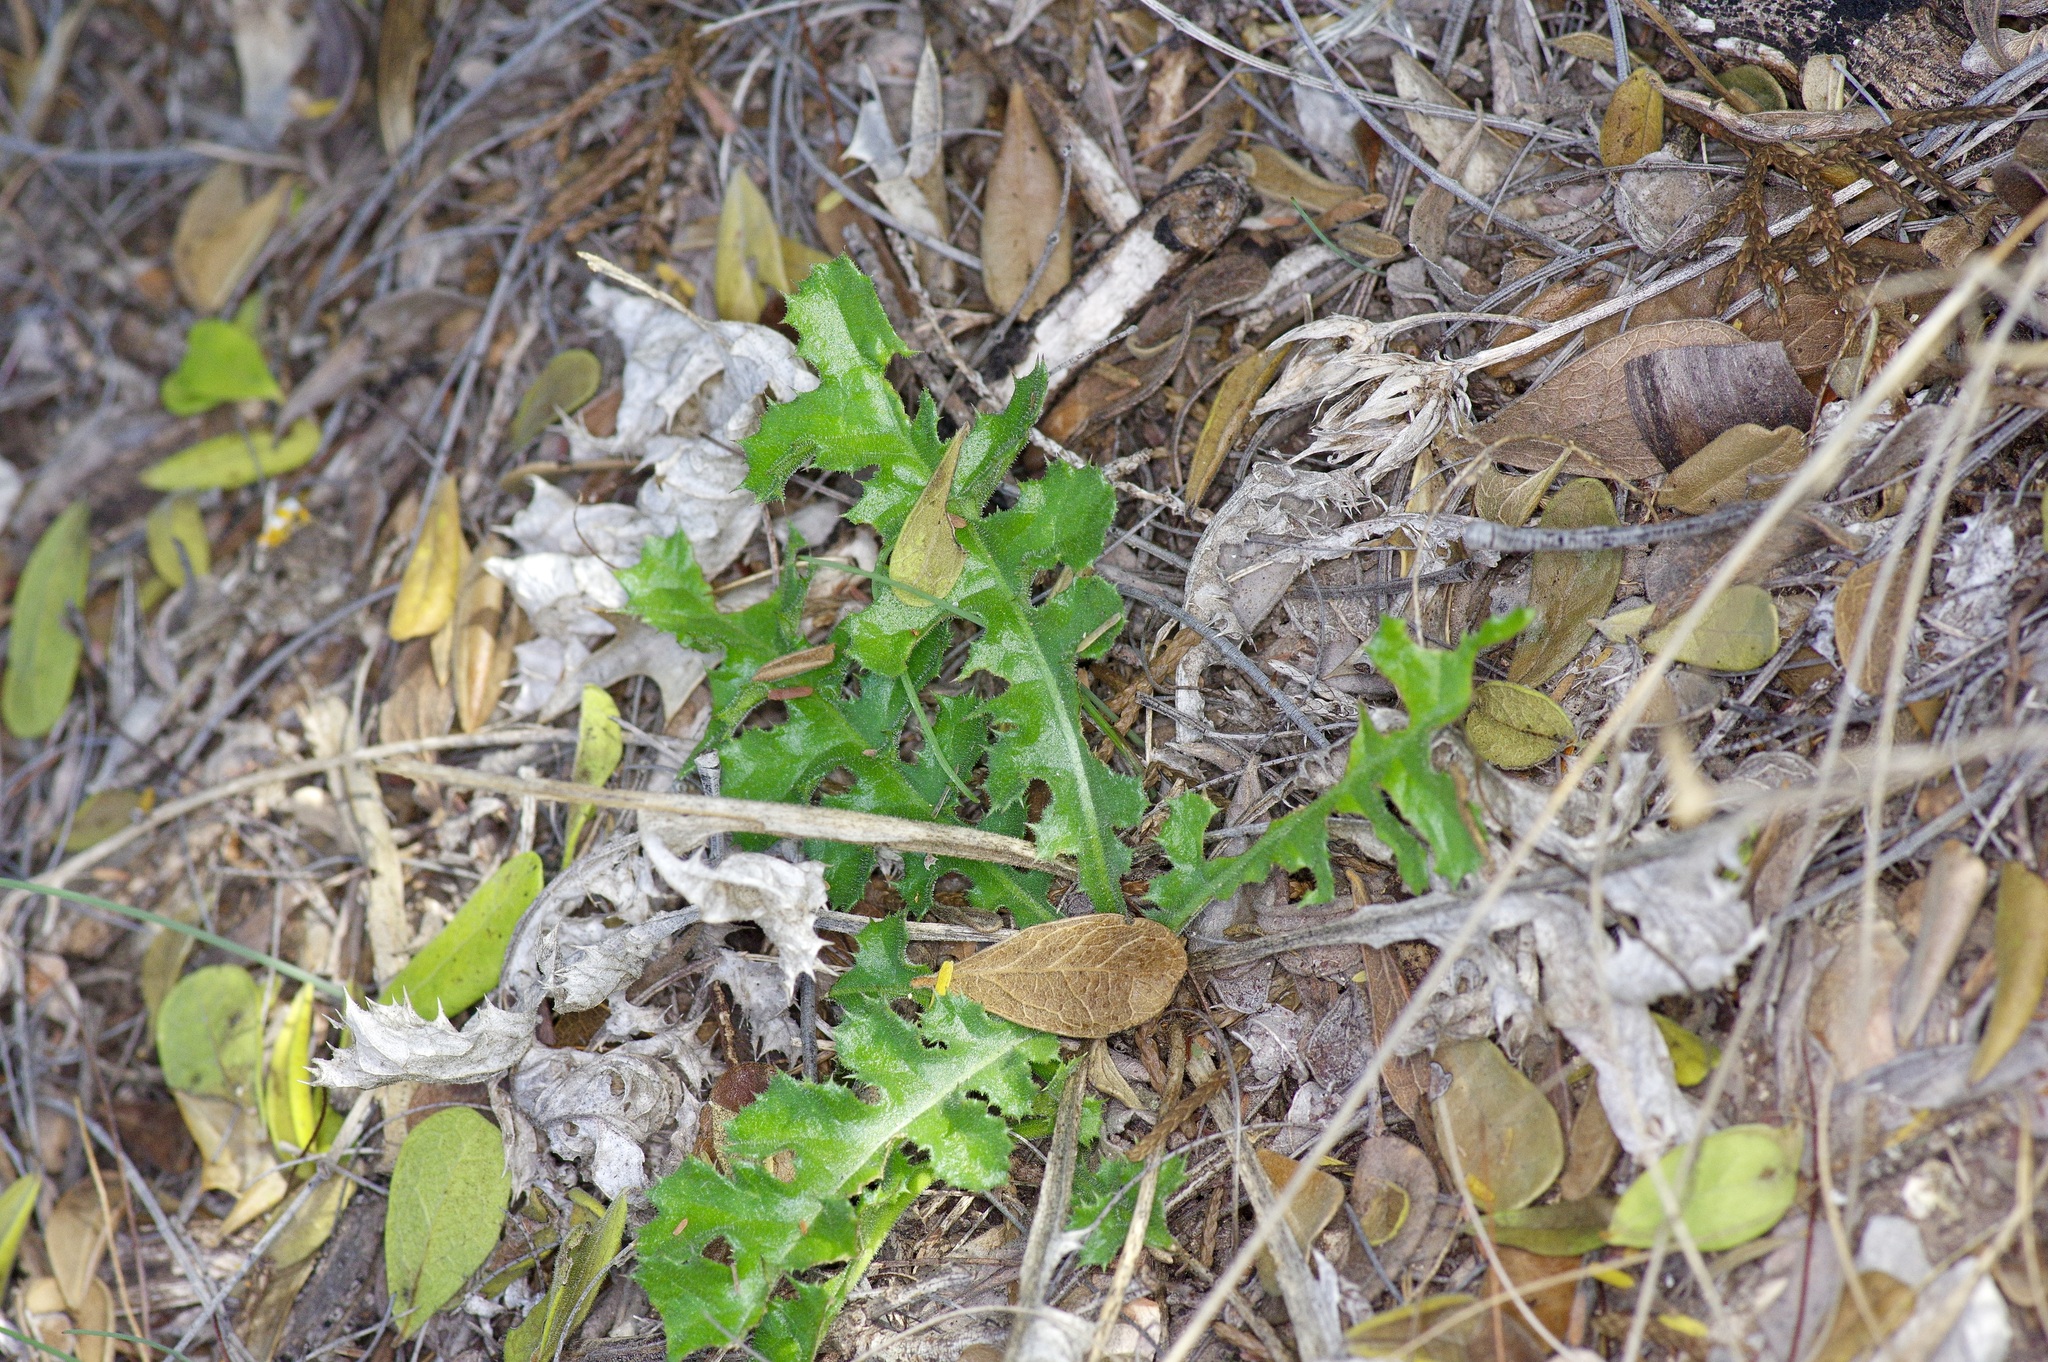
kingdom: Plantae
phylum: Tracheophyta
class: Magnoliopsida
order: Asterales
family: Asteraceae
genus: Acourtia
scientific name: Acourtia runcinata
